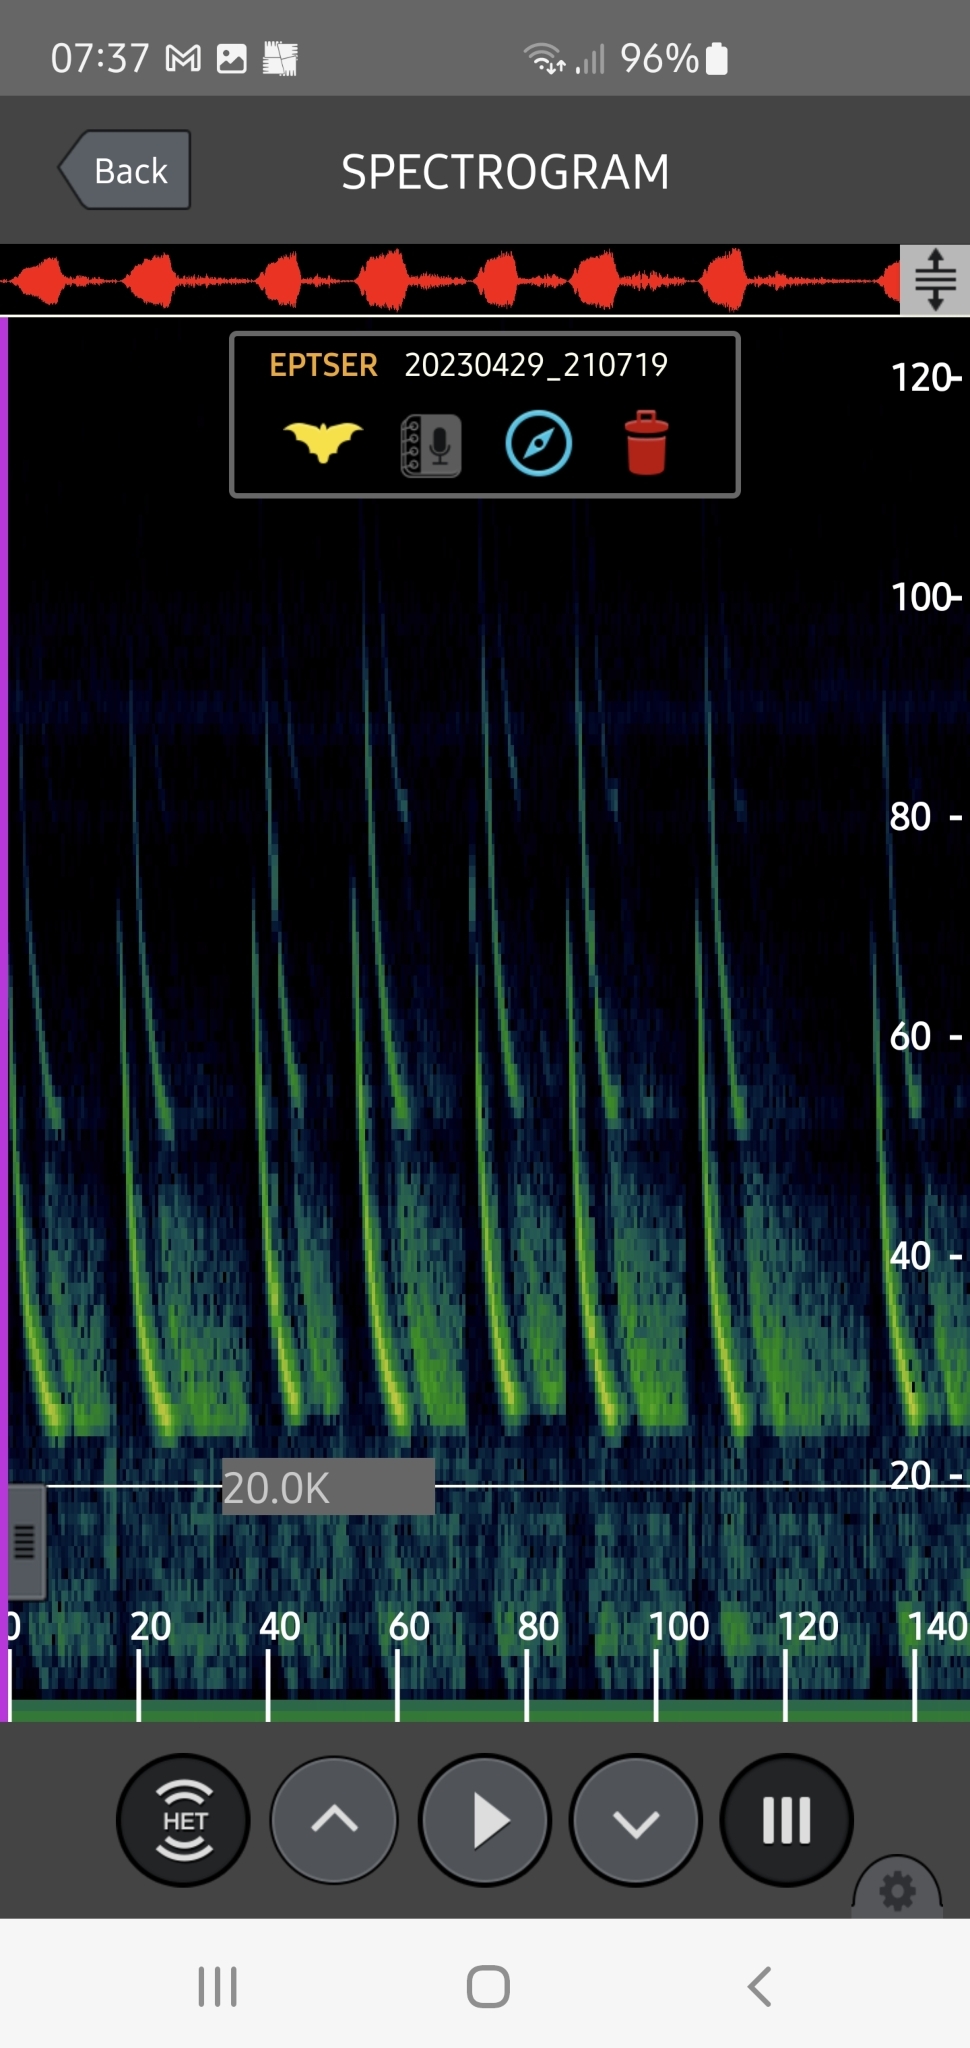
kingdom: Animalia
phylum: Chordata
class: Mammalia
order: Chiroptera
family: Vespertilionidae
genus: Eptesicus
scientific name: Eptesicus serotinus
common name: Serotine
